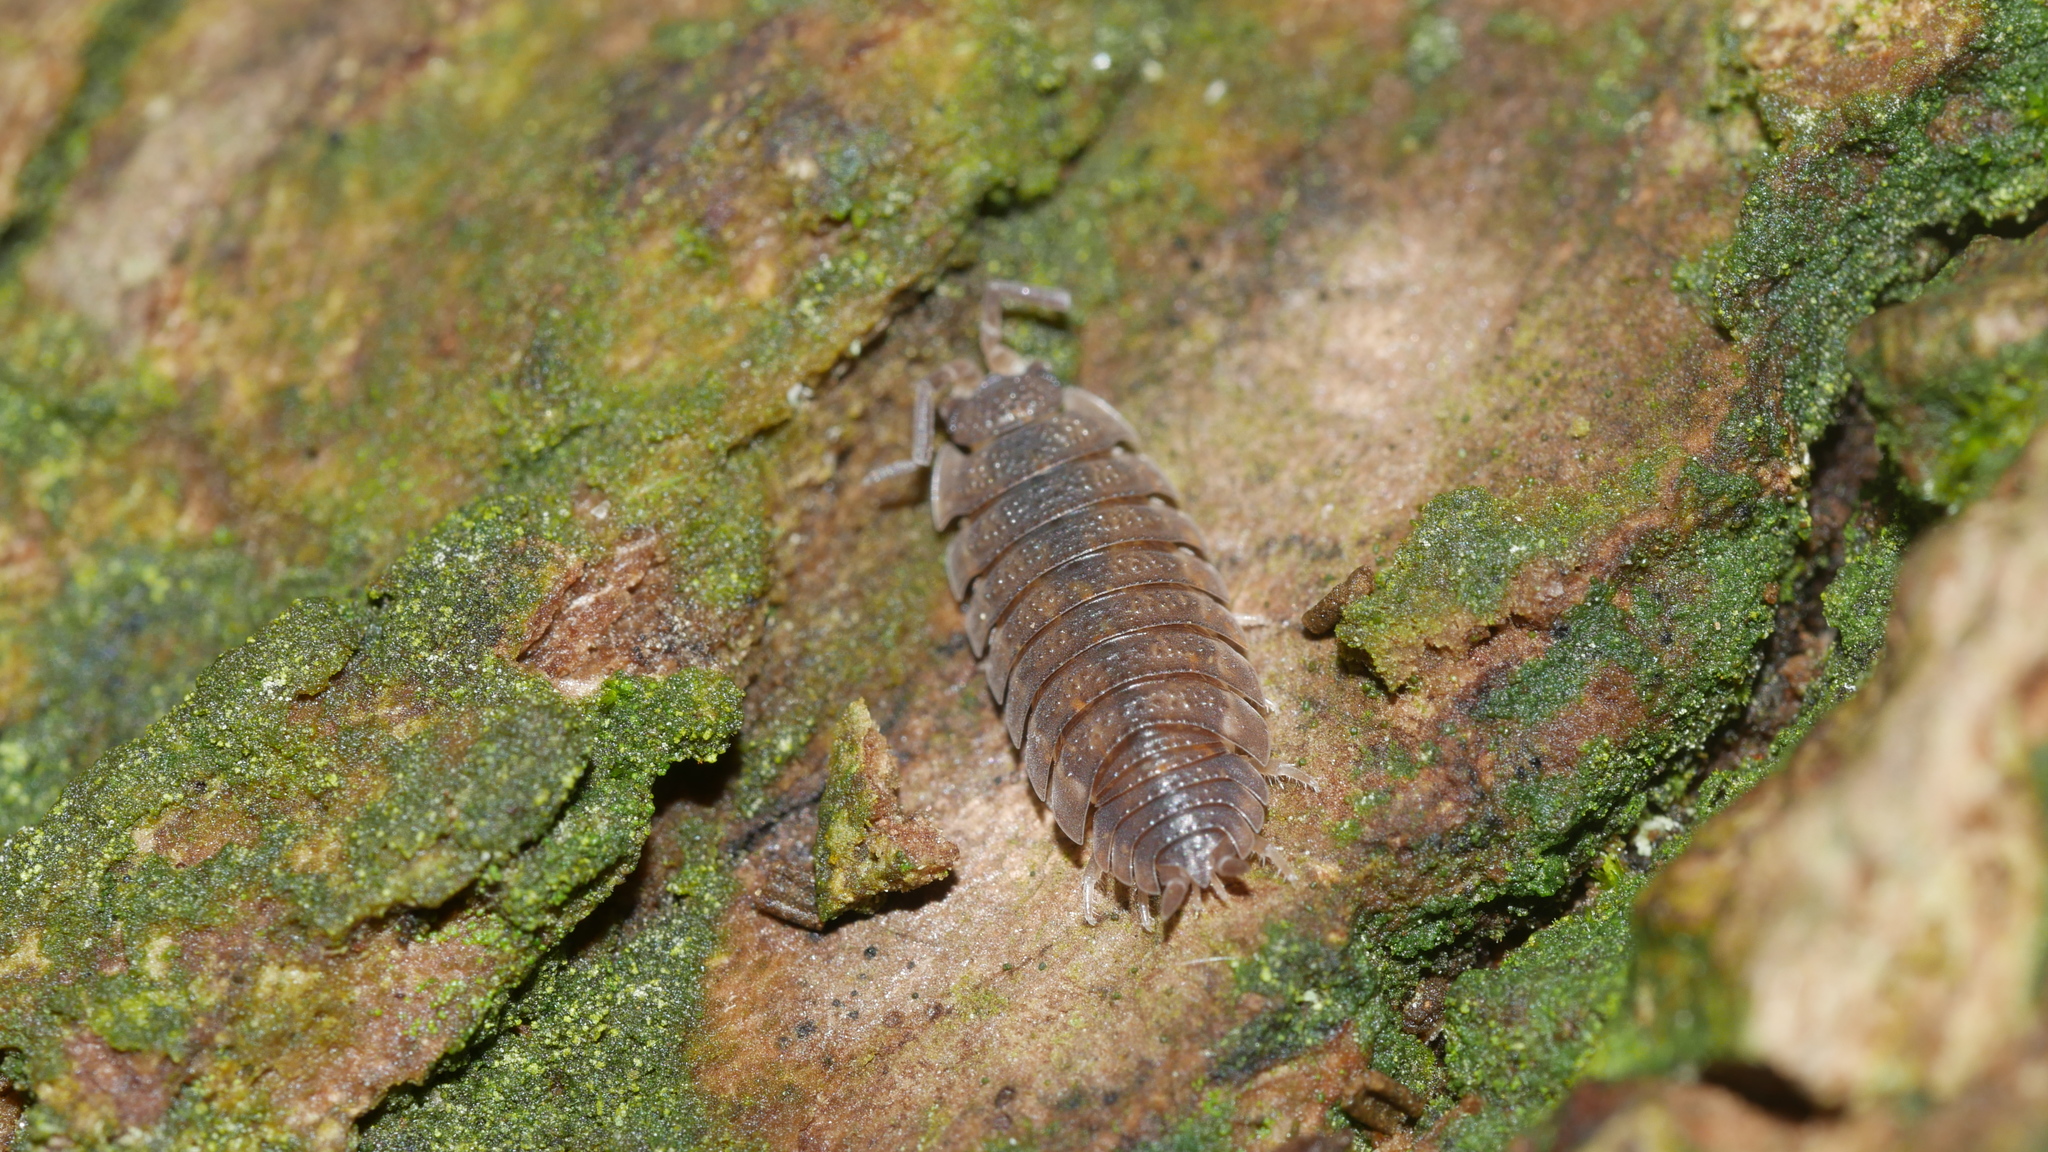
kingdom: Animalia
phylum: Arthropoda
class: Malacostraca
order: Isopoda
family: Porcellionidae
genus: Porcellio
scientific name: Porcellio scaber
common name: Common rough woodlouse
